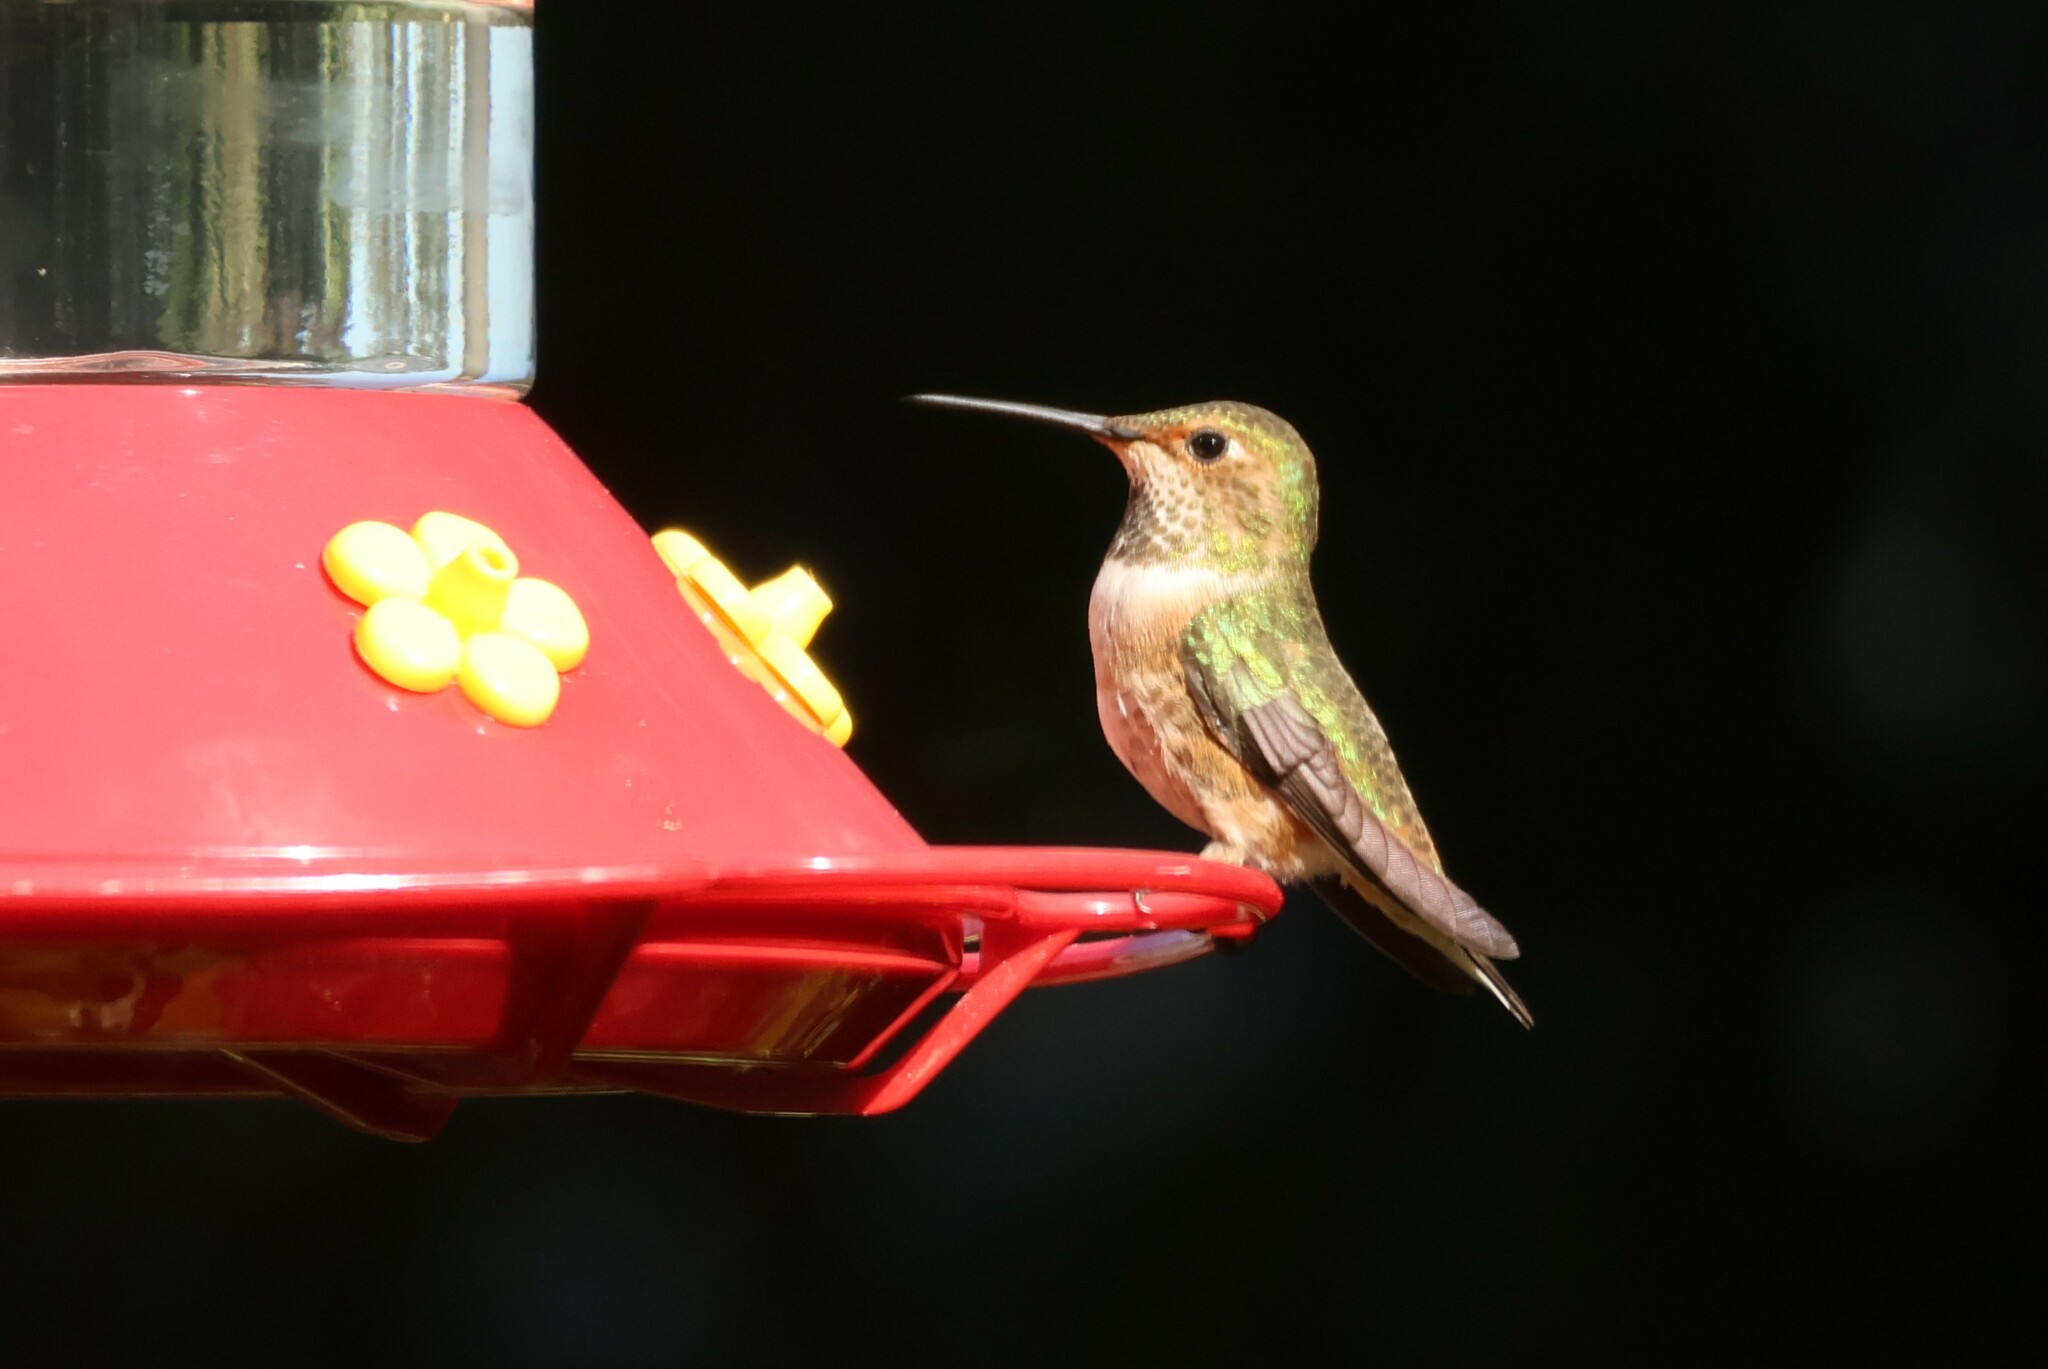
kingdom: Animalia
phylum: Chordata
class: Aves
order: Apodiformes
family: Trochilidae
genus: Selasphorus
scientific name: Selasphorus sasin
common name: Allen's hummingbird
